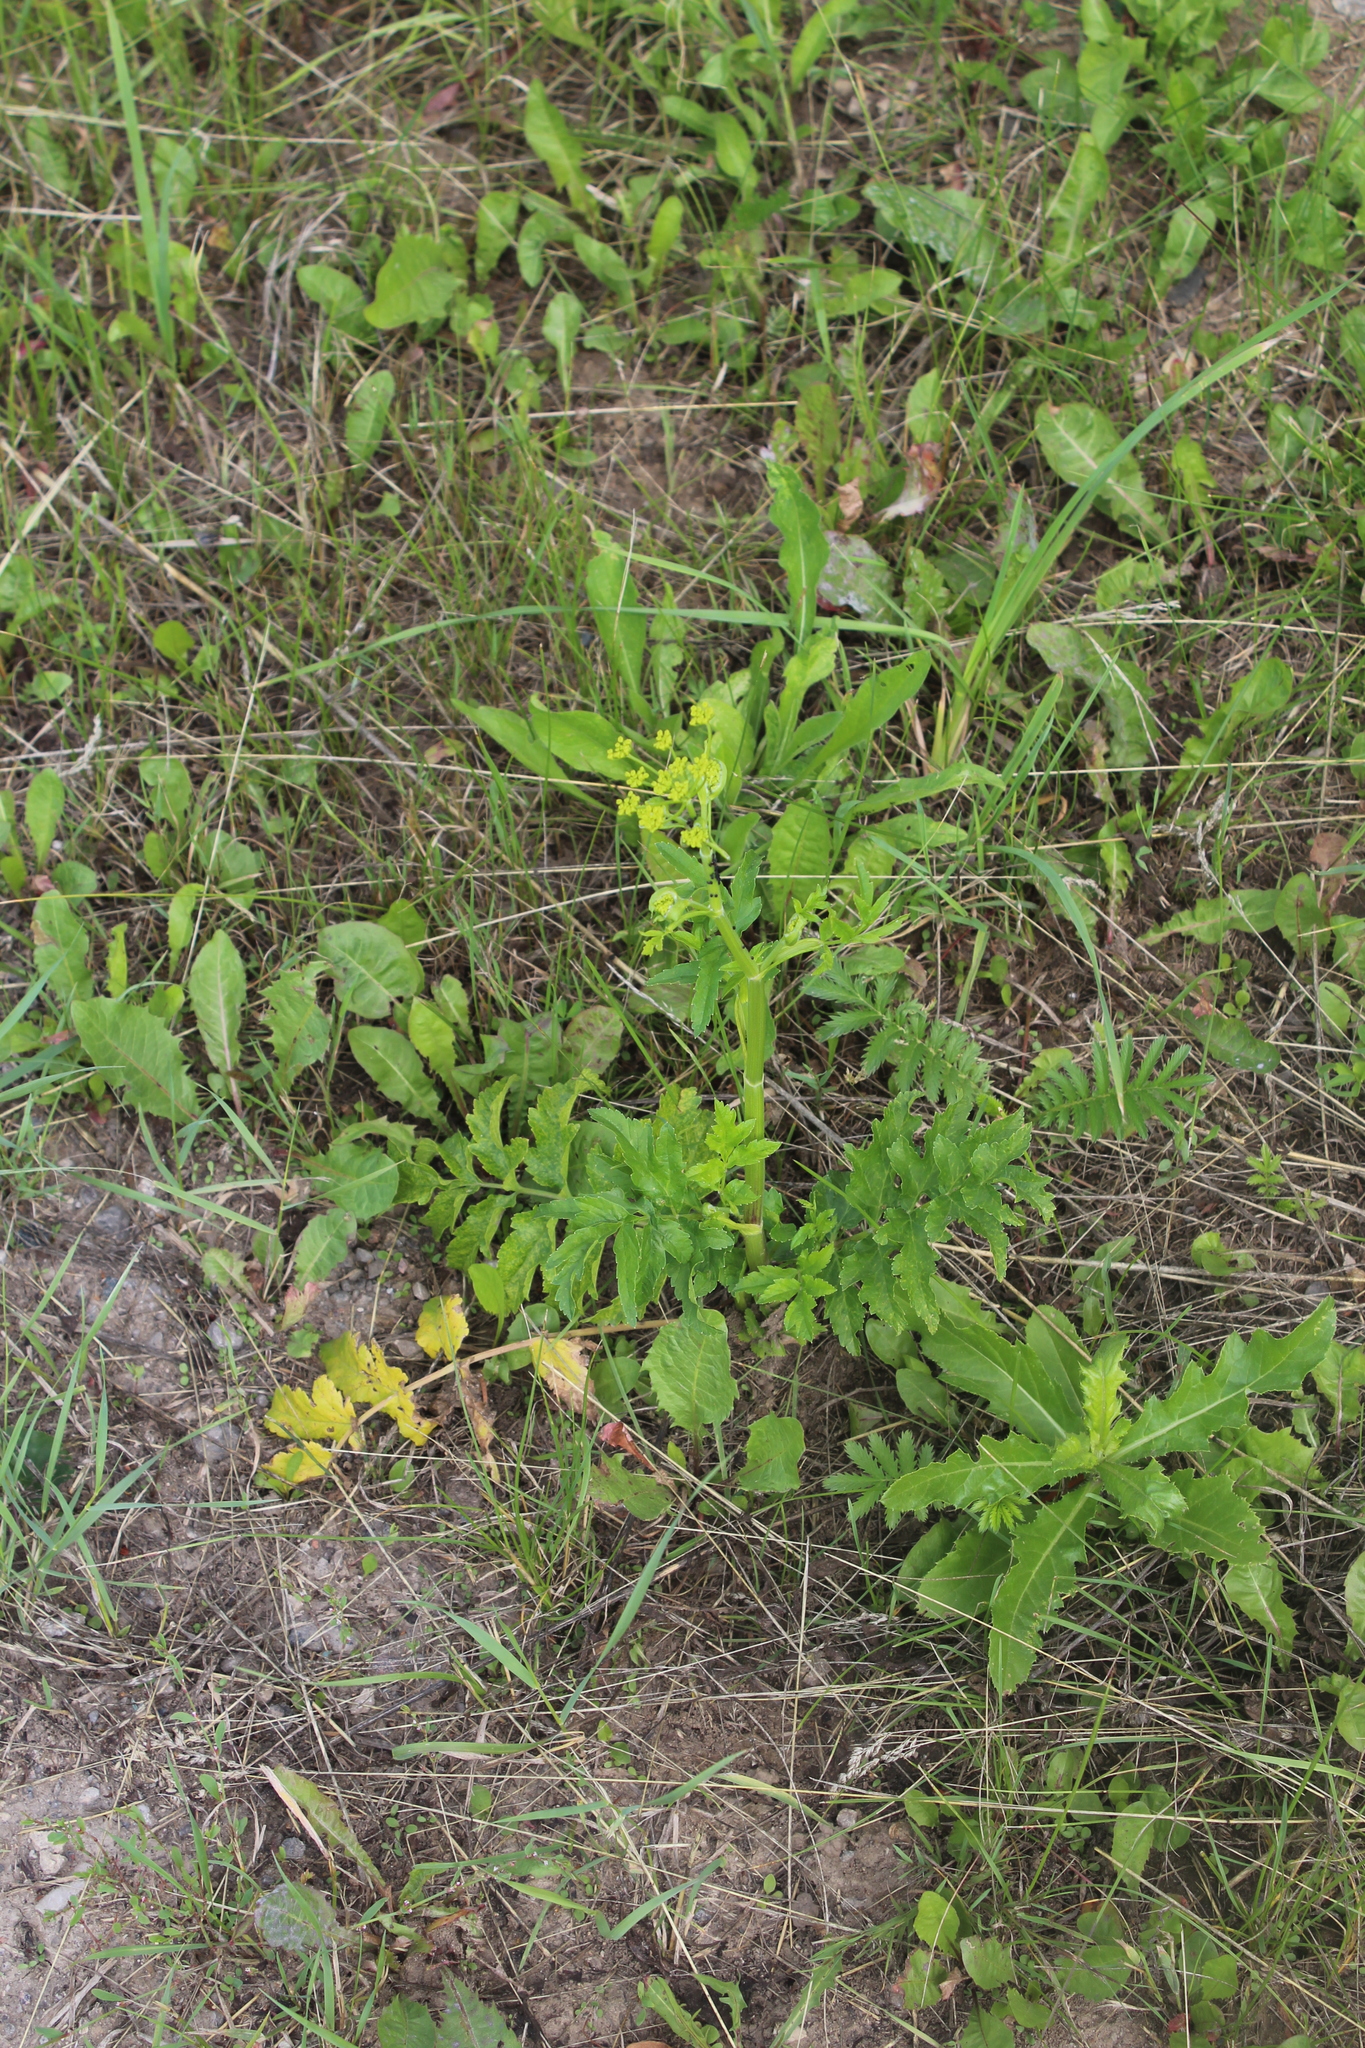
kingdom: Plantae
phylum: Tracheophyta
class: Magnoliopsida
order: Apiales
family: Apiaceae
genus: Pastinaca
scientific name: Pastinaca sativa
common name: Wild parsnip
